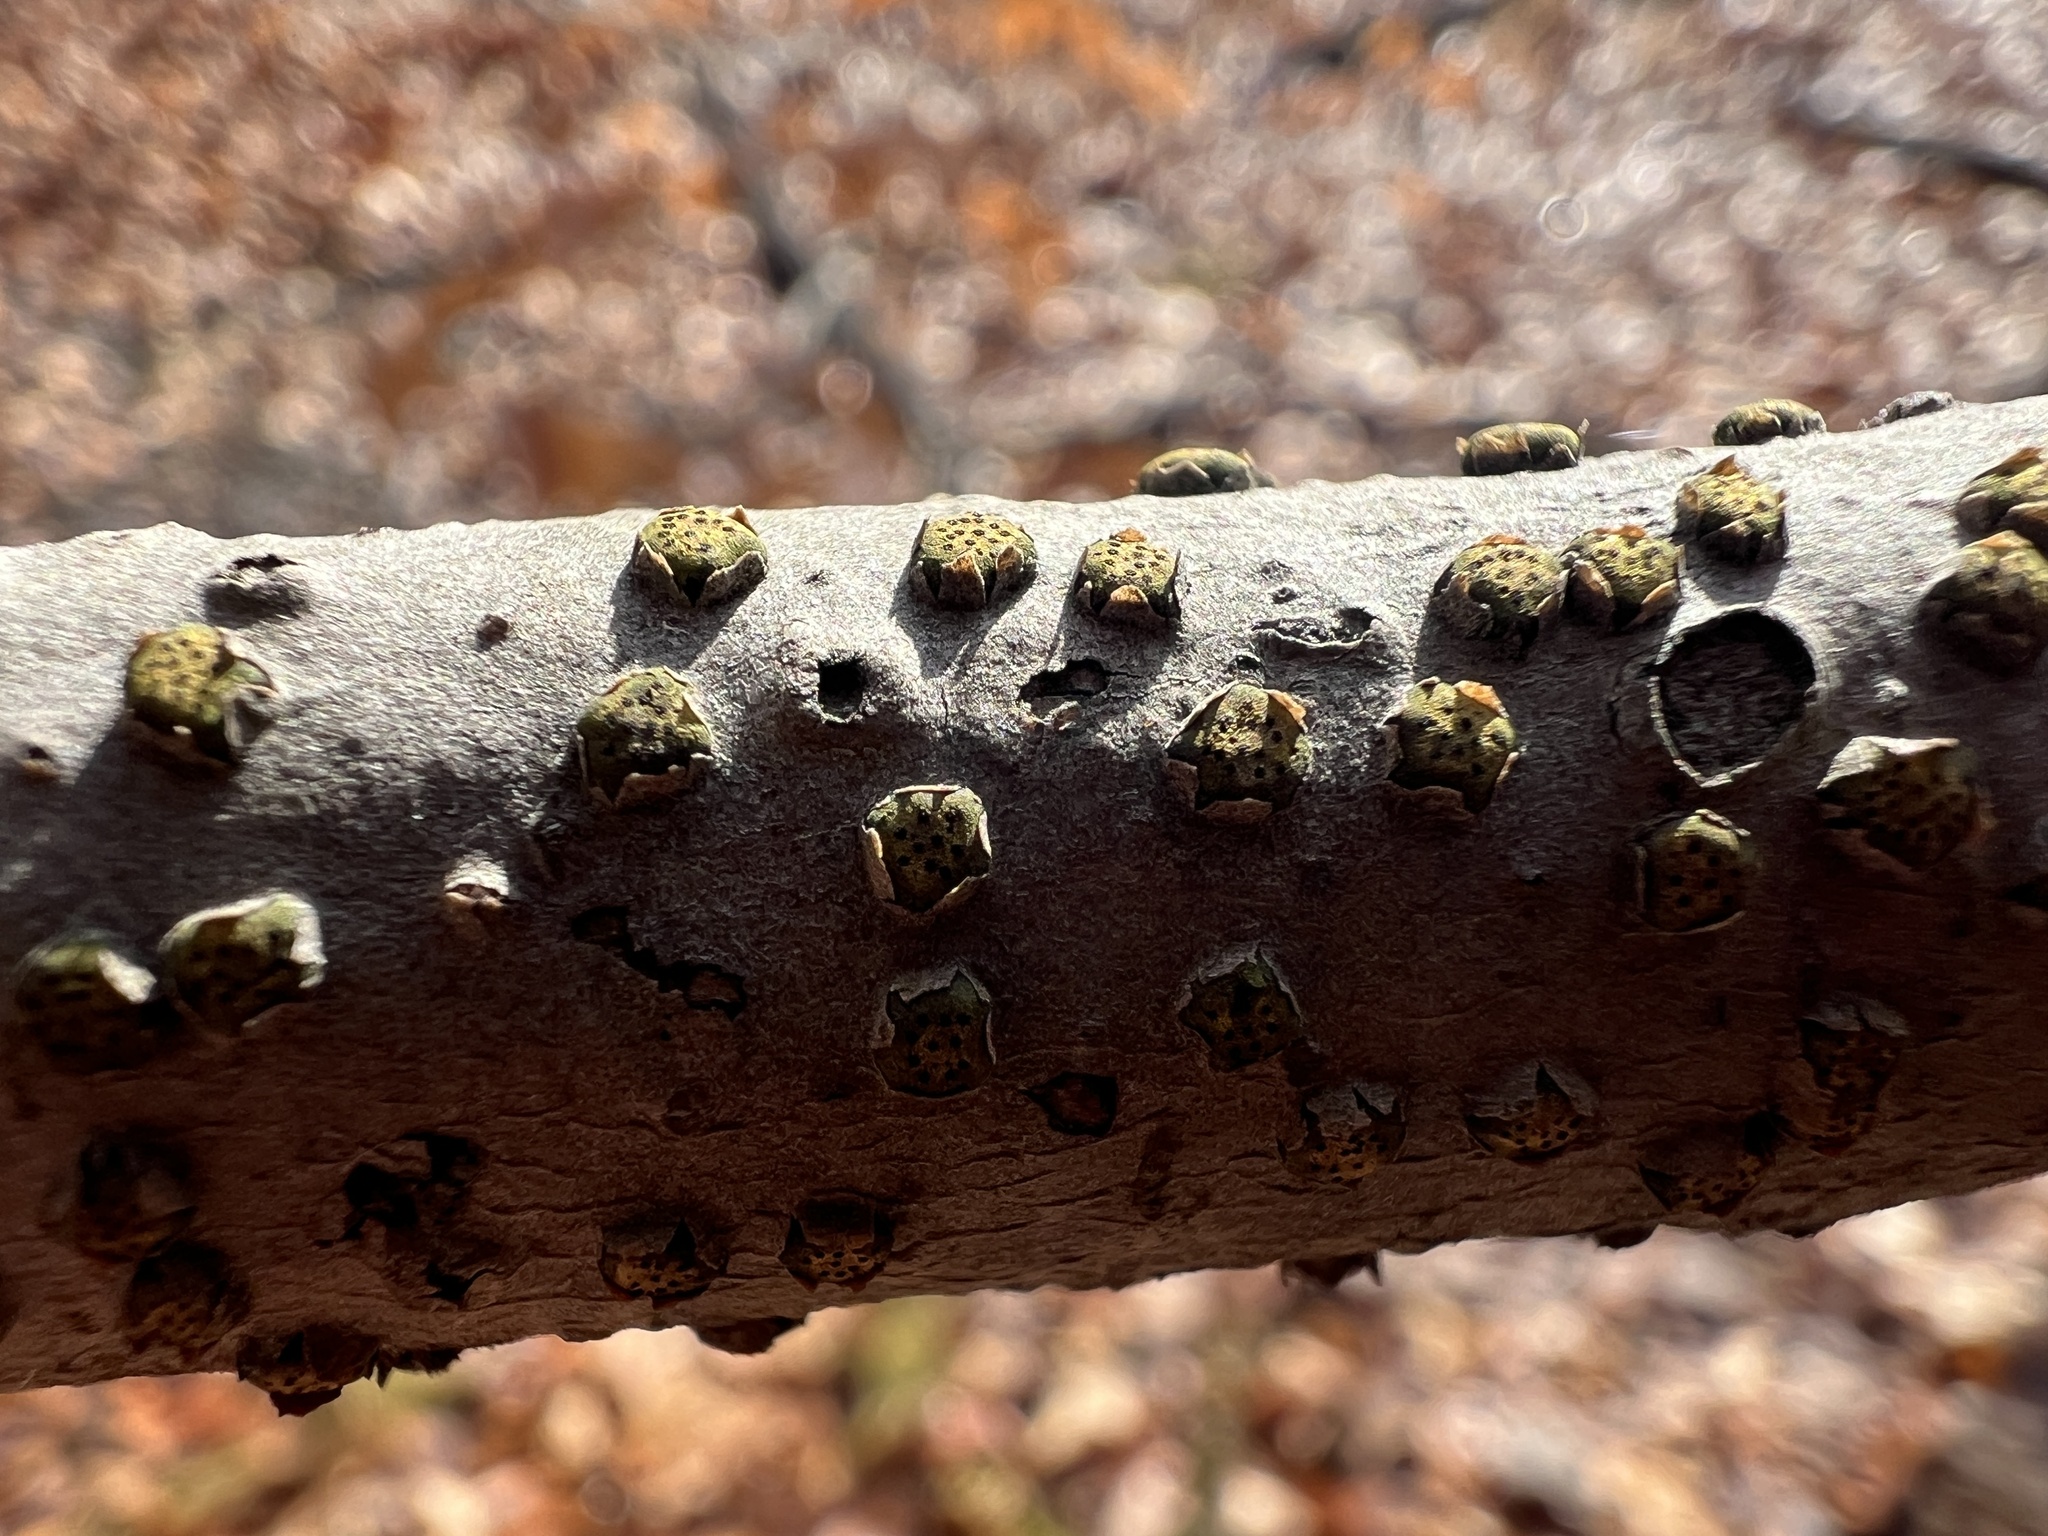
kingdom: Fungi
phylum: Ascomycota
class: Sordariomycetes
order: Xylariales
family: Diatrypaceae
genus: Diatrype
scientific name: Diatrype virescens
